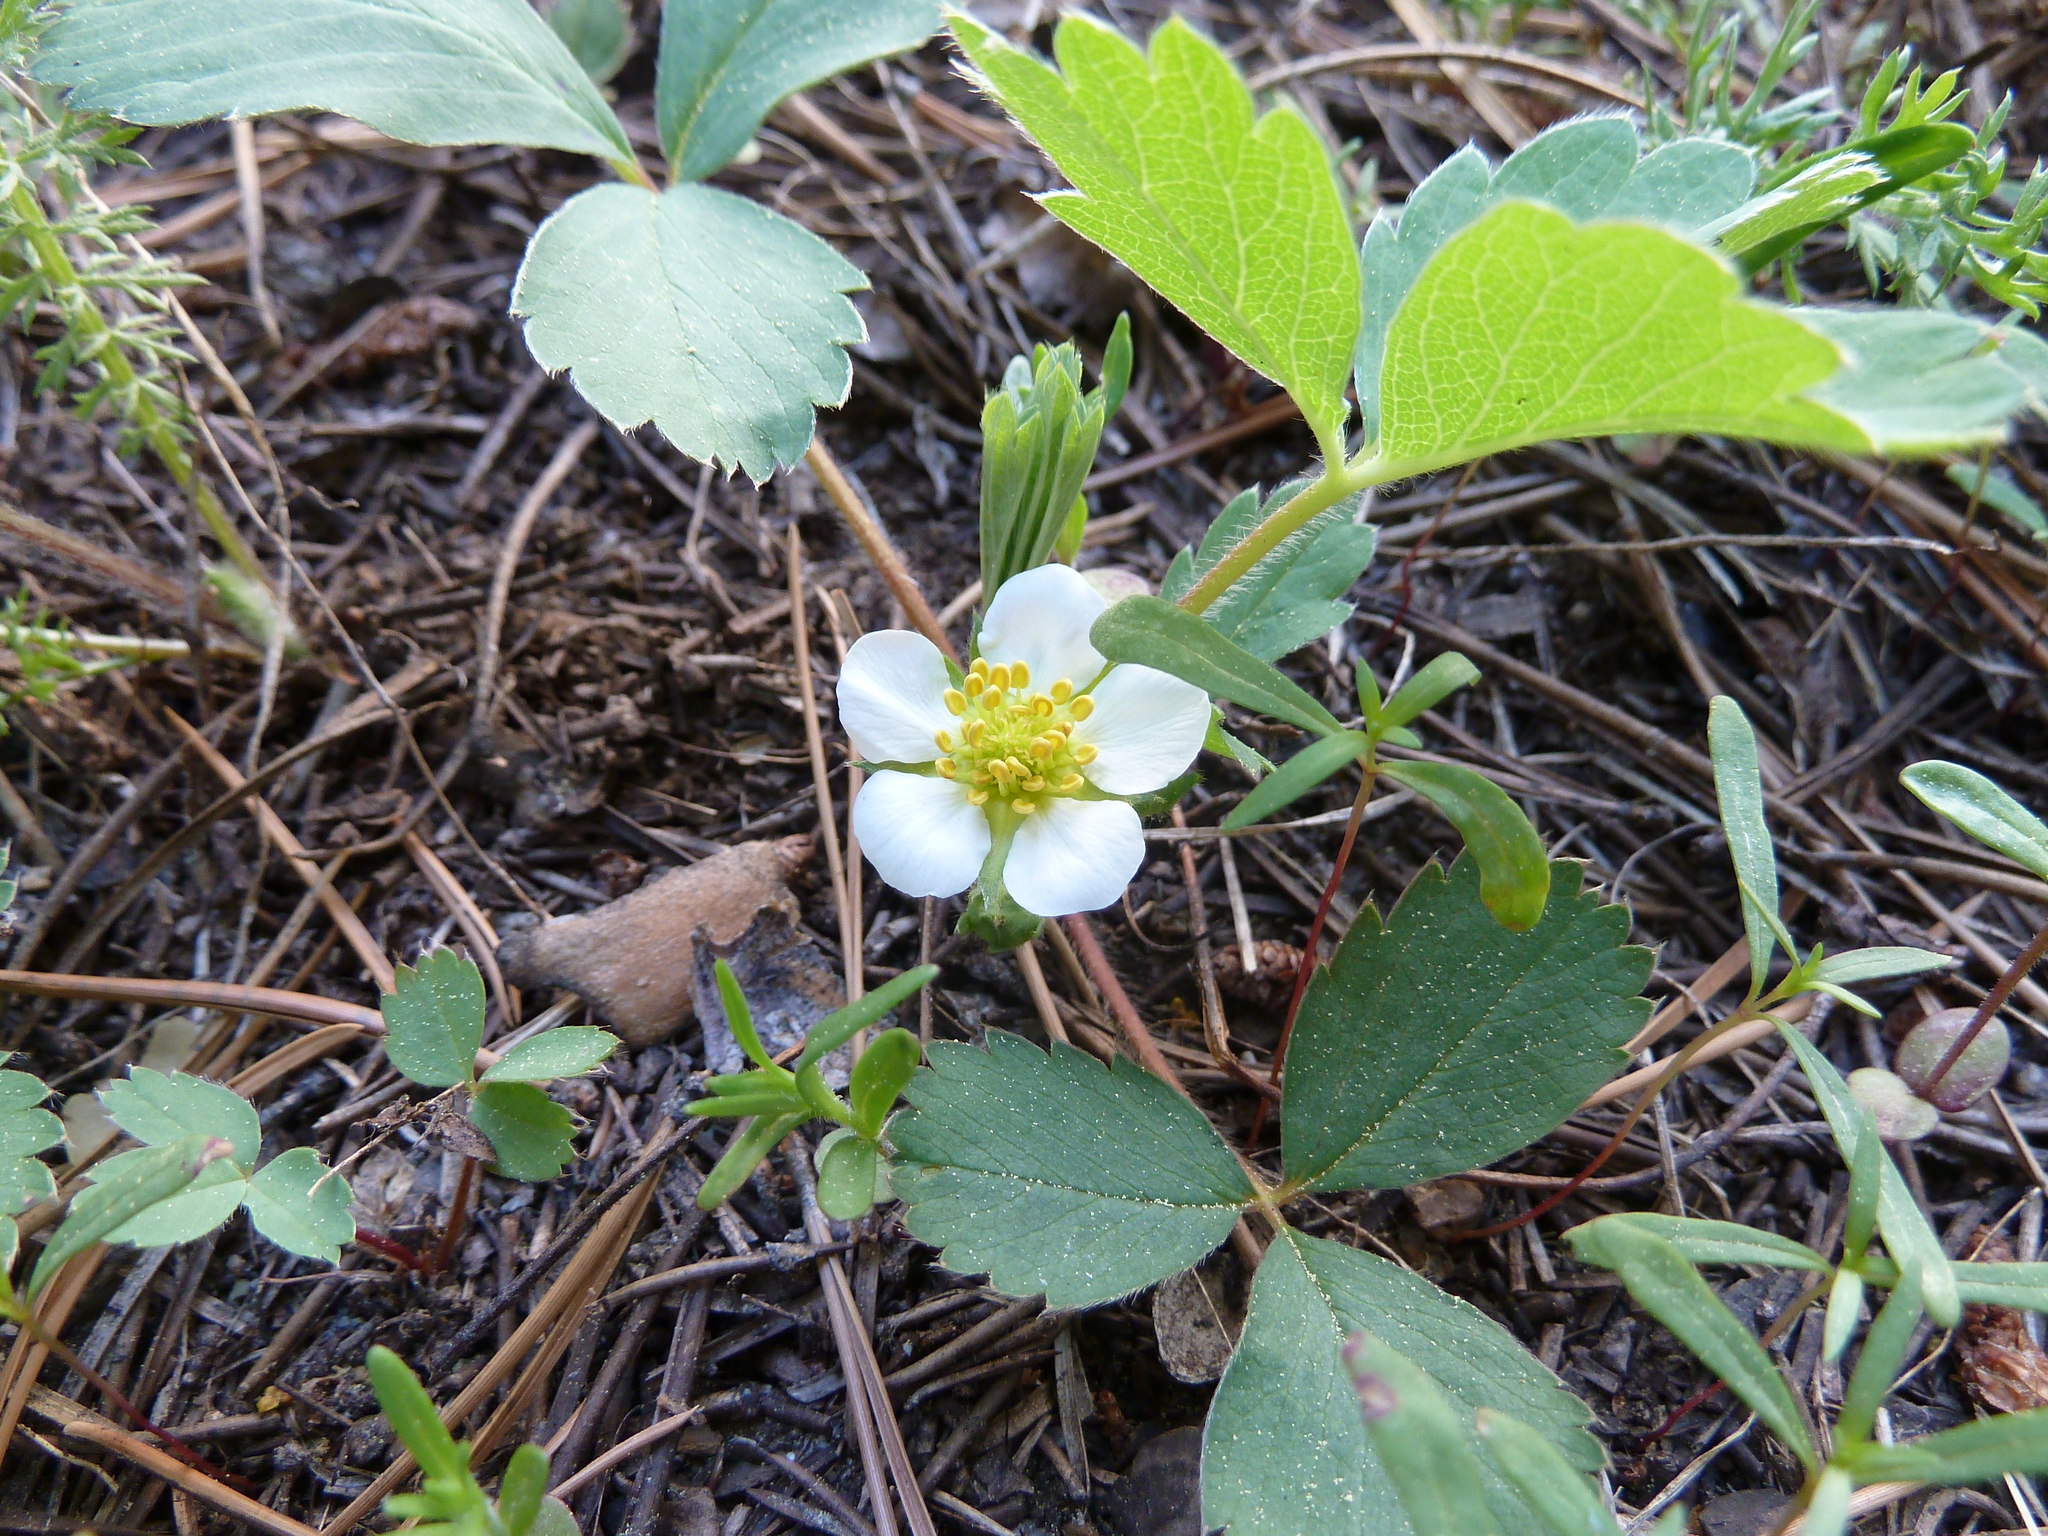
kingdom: Plantae
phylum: Tracheophyta
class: Magnoliopsida
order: Rosales
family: Rosaceae
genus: Fragaria
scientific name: Fragaria virginiana
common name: Thickleaved wild strawberry
